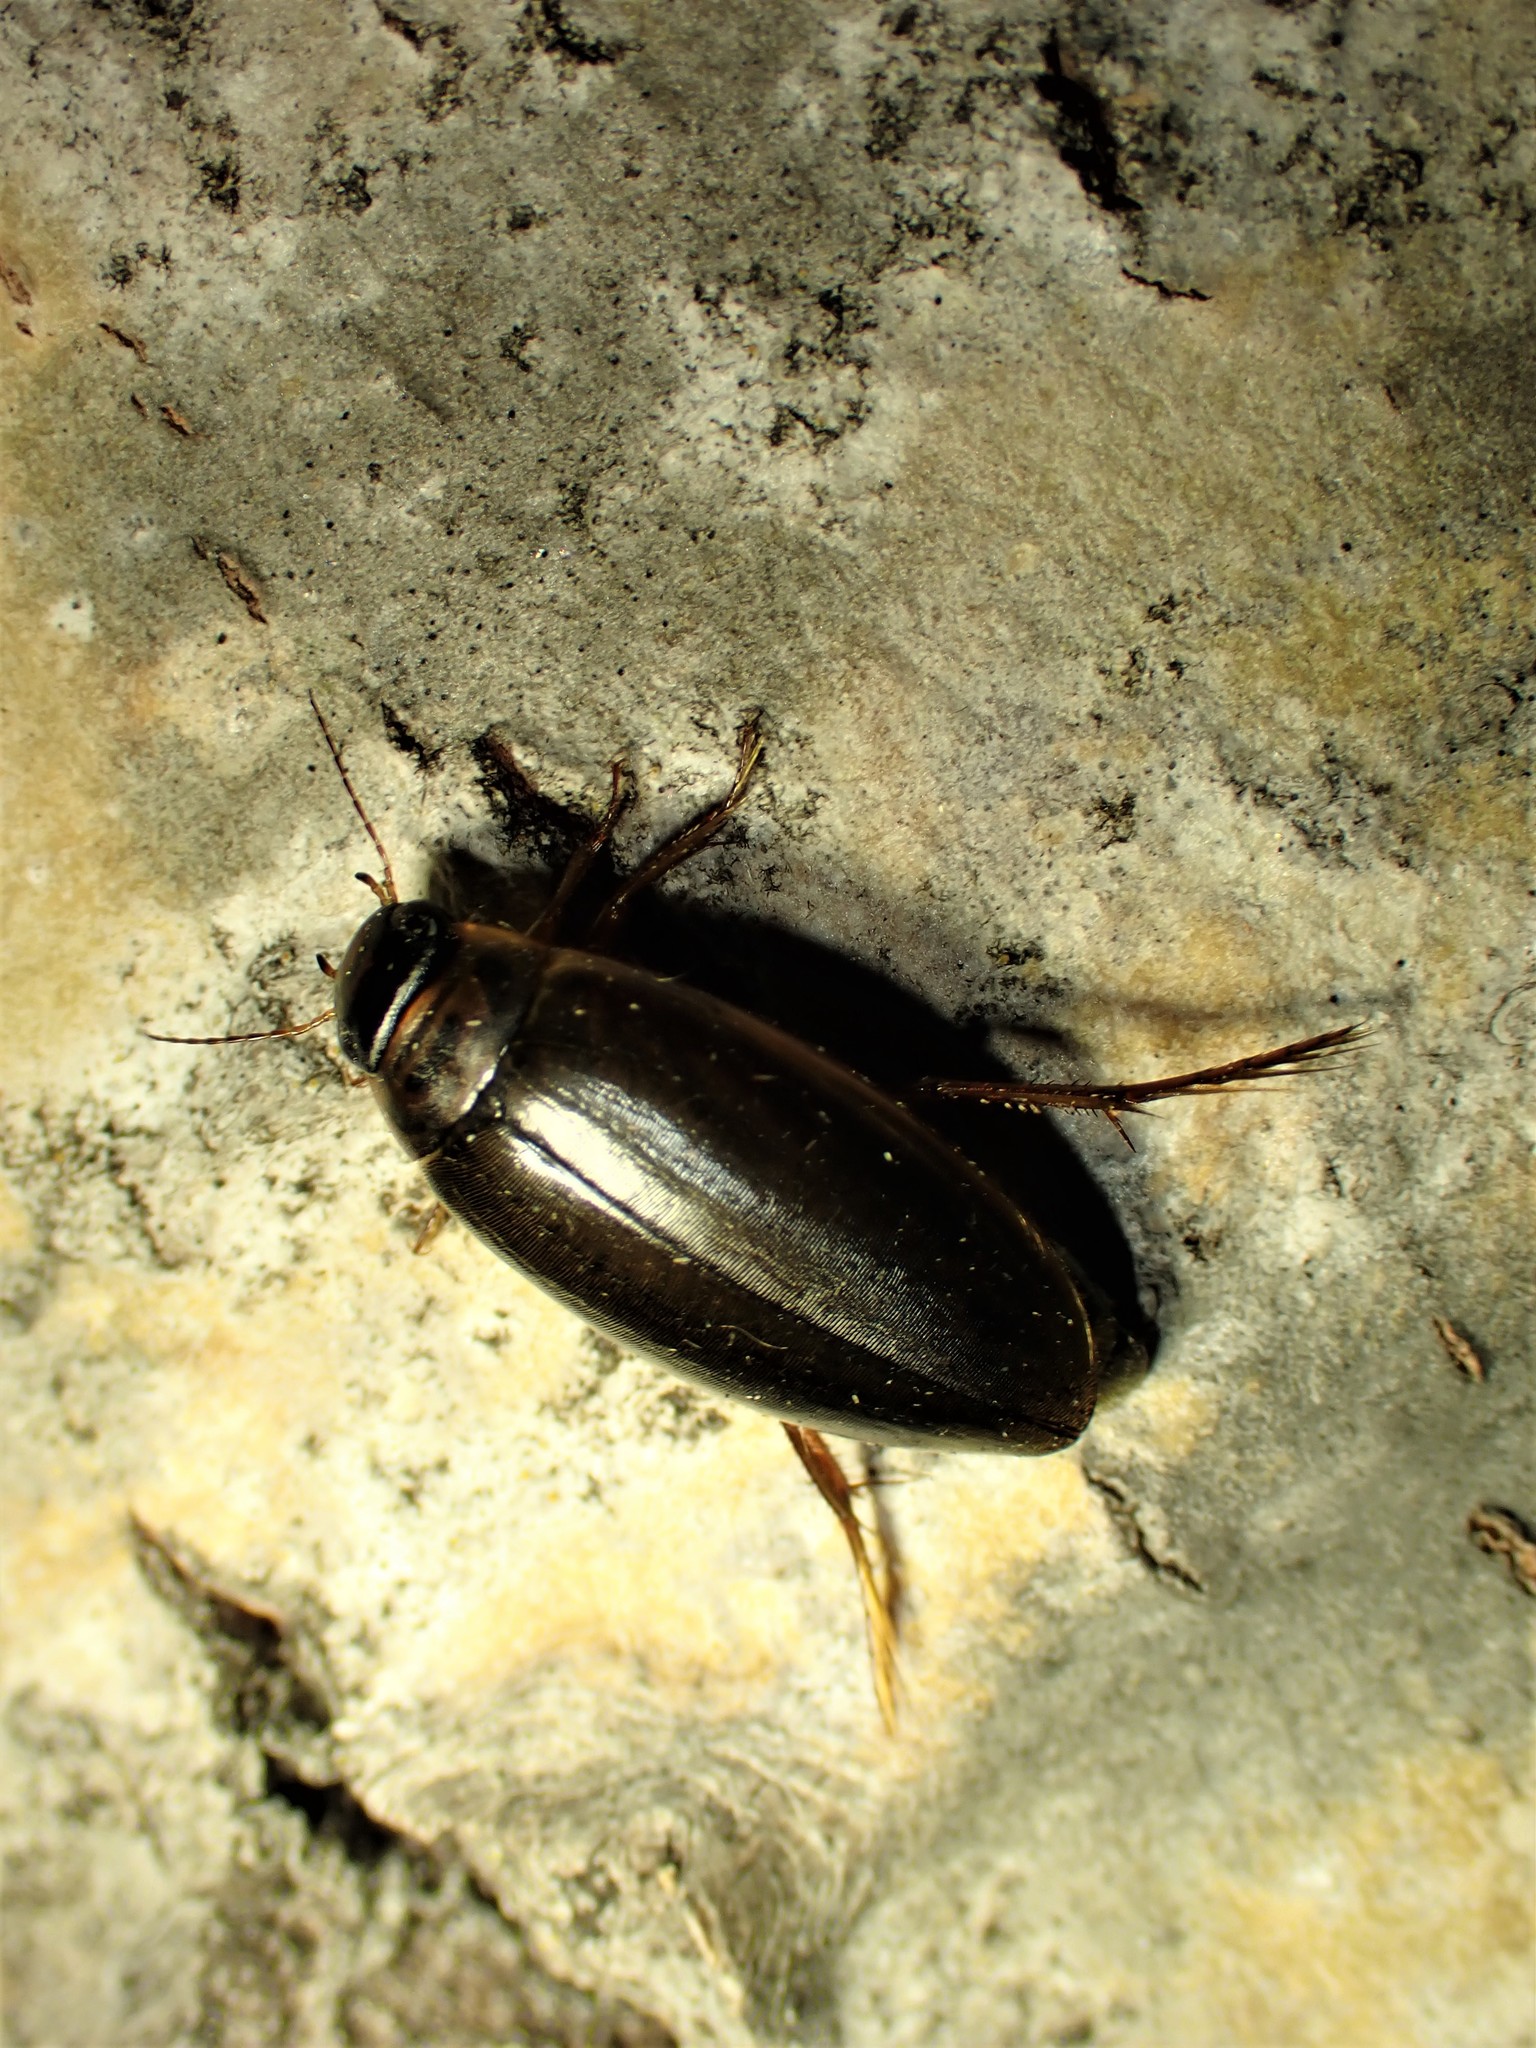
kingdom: Animalia
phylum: Arthropoda
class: Insecta
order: Coleoptera
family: Dytiscidae
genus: Colymbetes
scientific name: Colymbetes sculptilis
